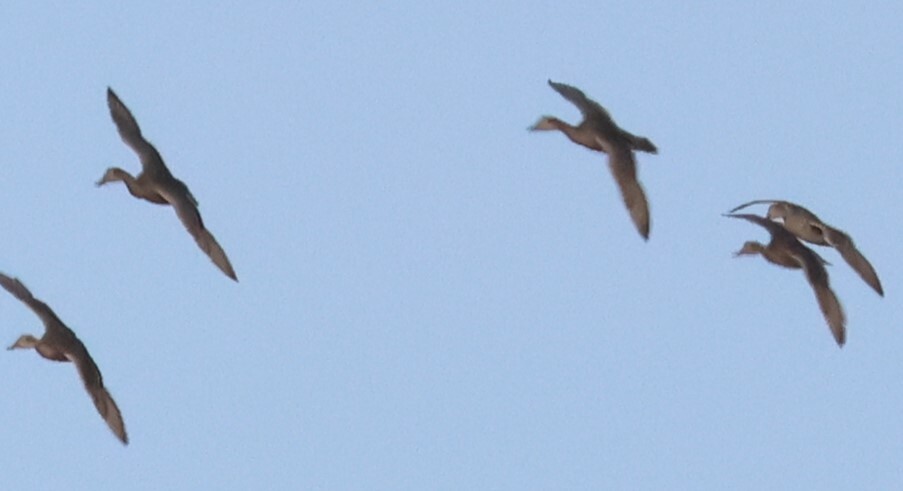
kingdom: Animalia
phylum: Chordata
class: Aves
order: Anseriformes
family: Anatidae
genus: Anas
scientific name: Anas acuta
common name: Northern pintail
